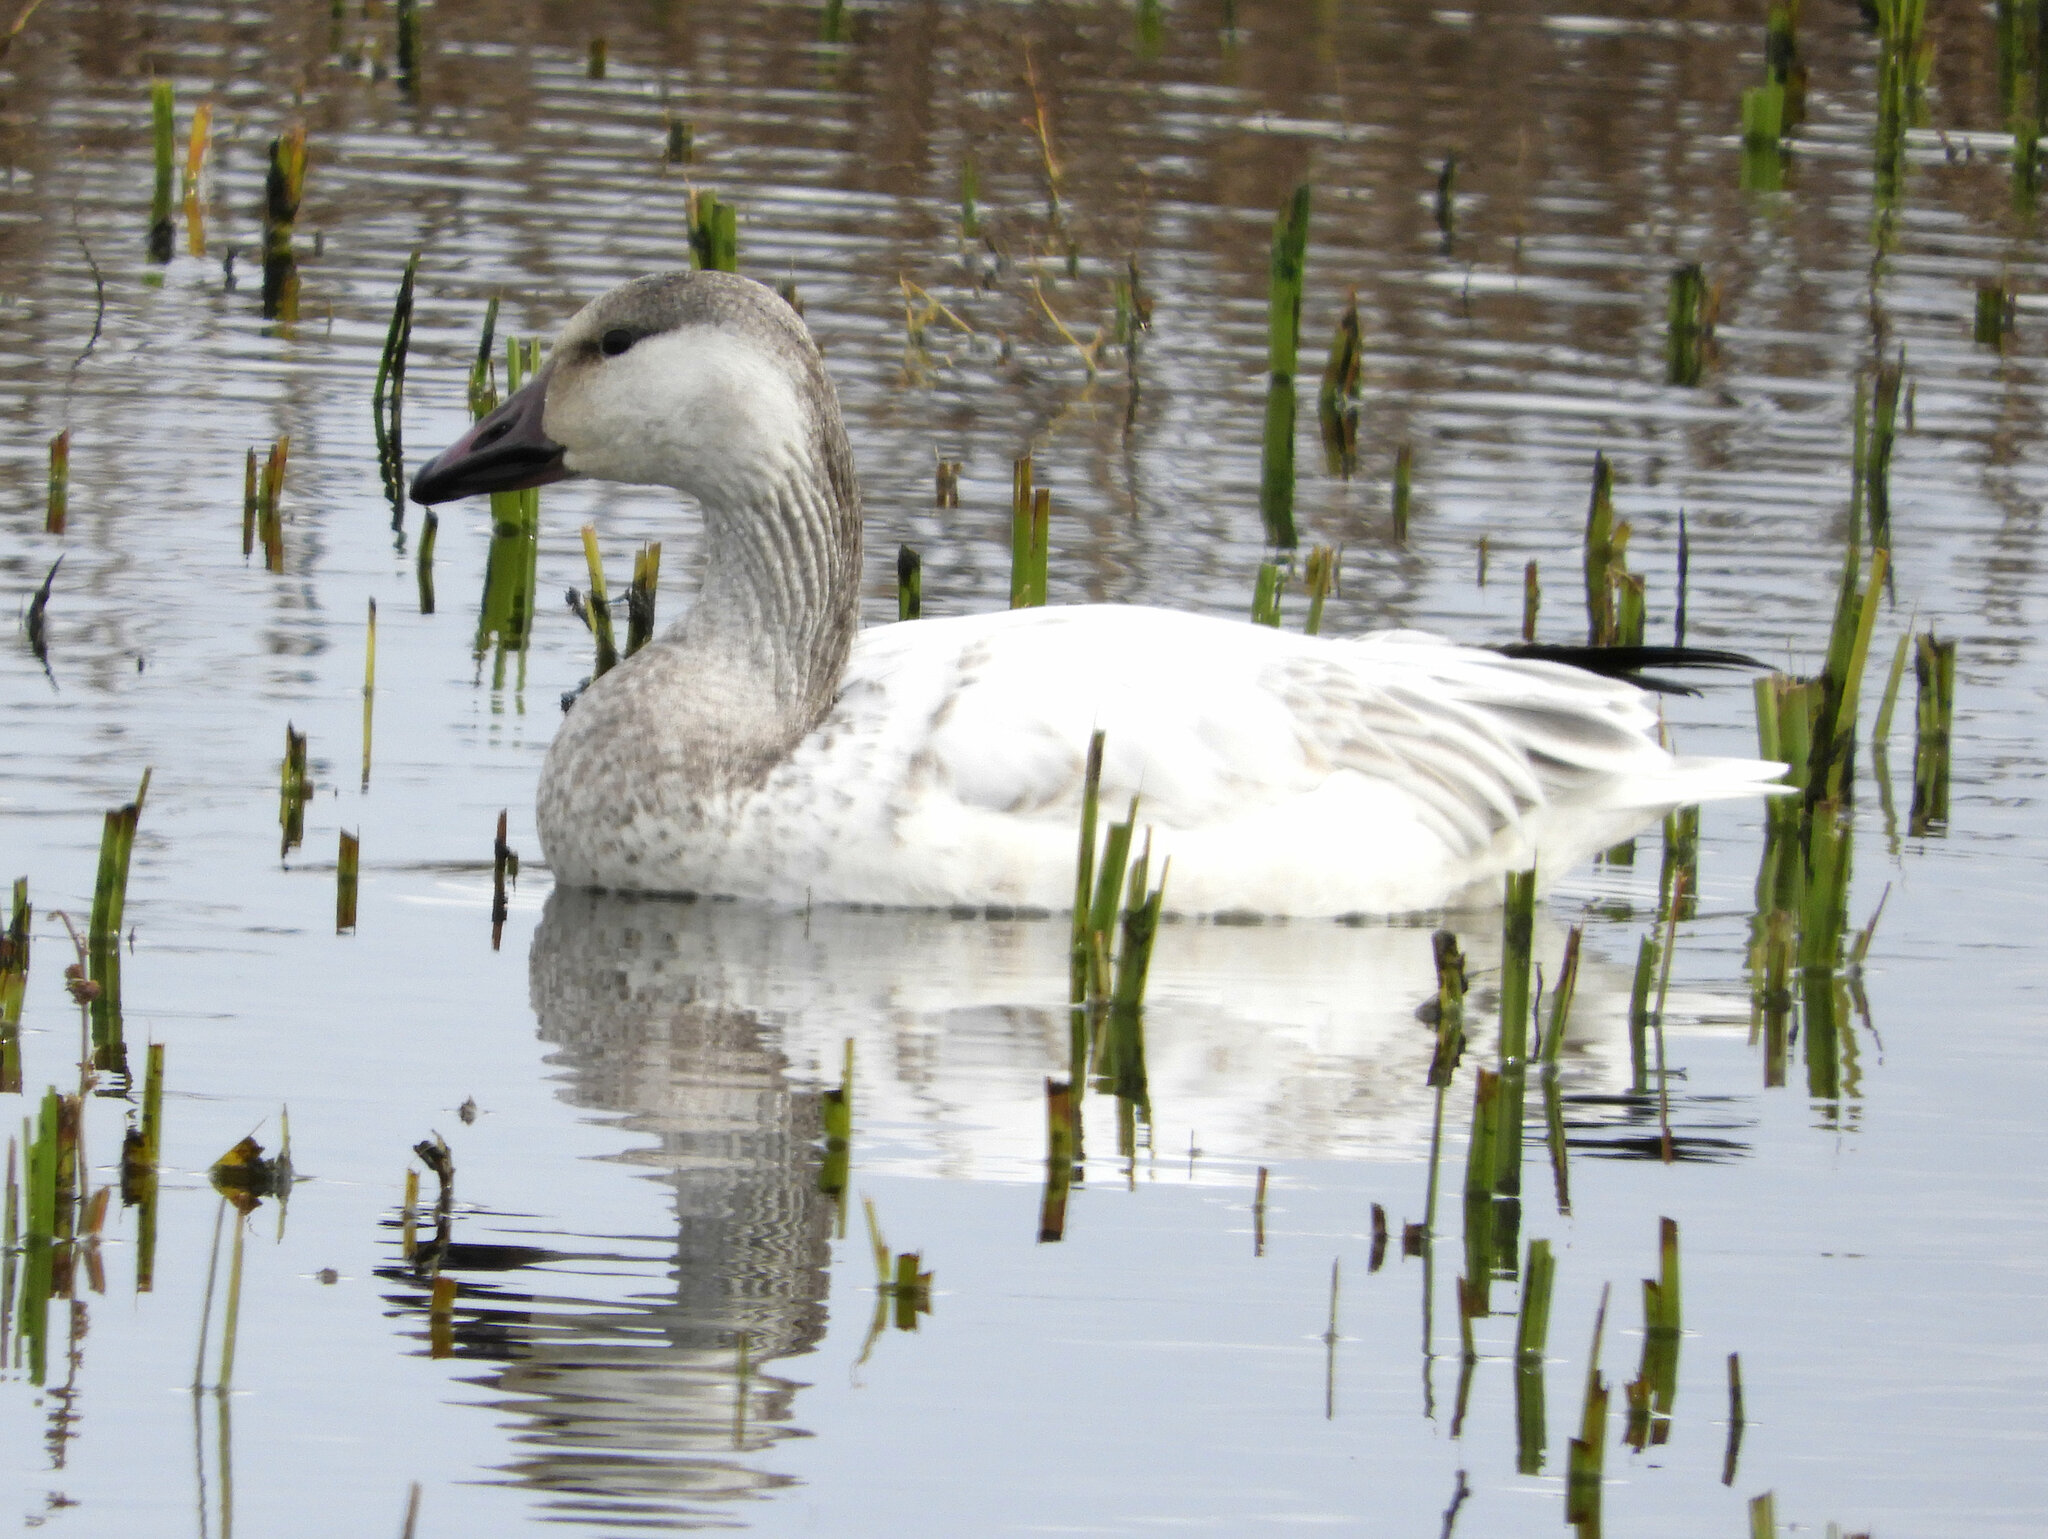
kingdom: Animalia
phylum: Chordata
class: Aves
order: Anseriformes
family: Anatidae
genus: Anser
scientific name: Anser caerulescens
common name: Snow goose
